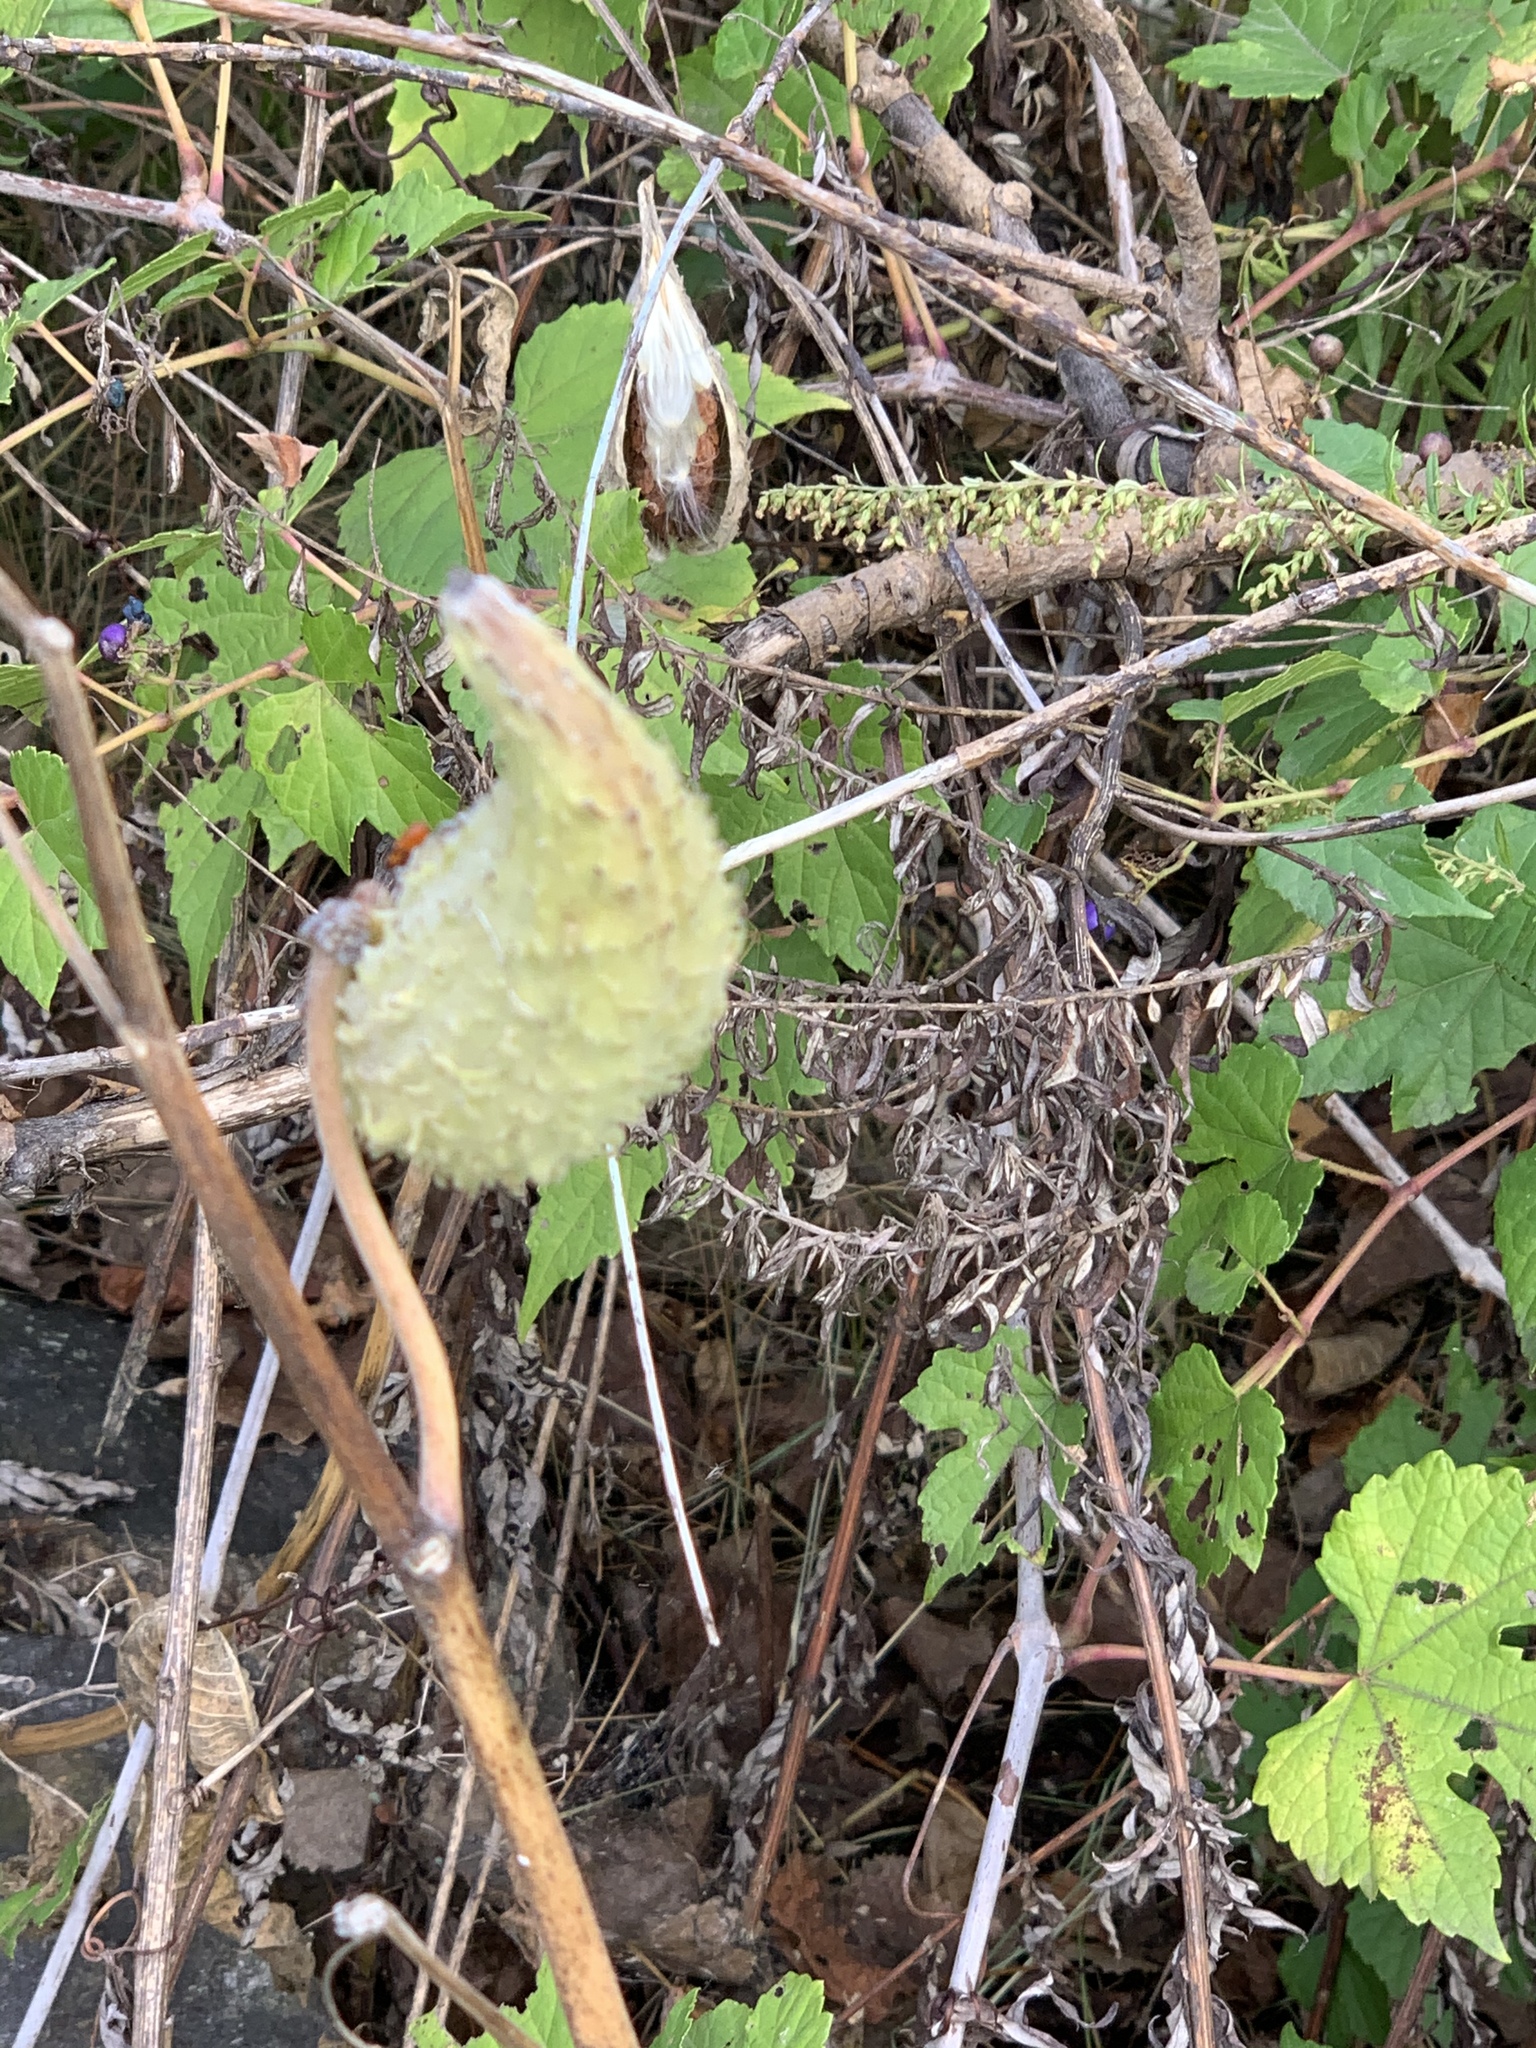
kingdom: Plantae
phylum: Tracheophyta
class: Magnoliopsida
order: Gentianales
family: Apocynaceae
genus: Asclepias
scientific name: Asclepias syriaca
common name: Common milkweed
